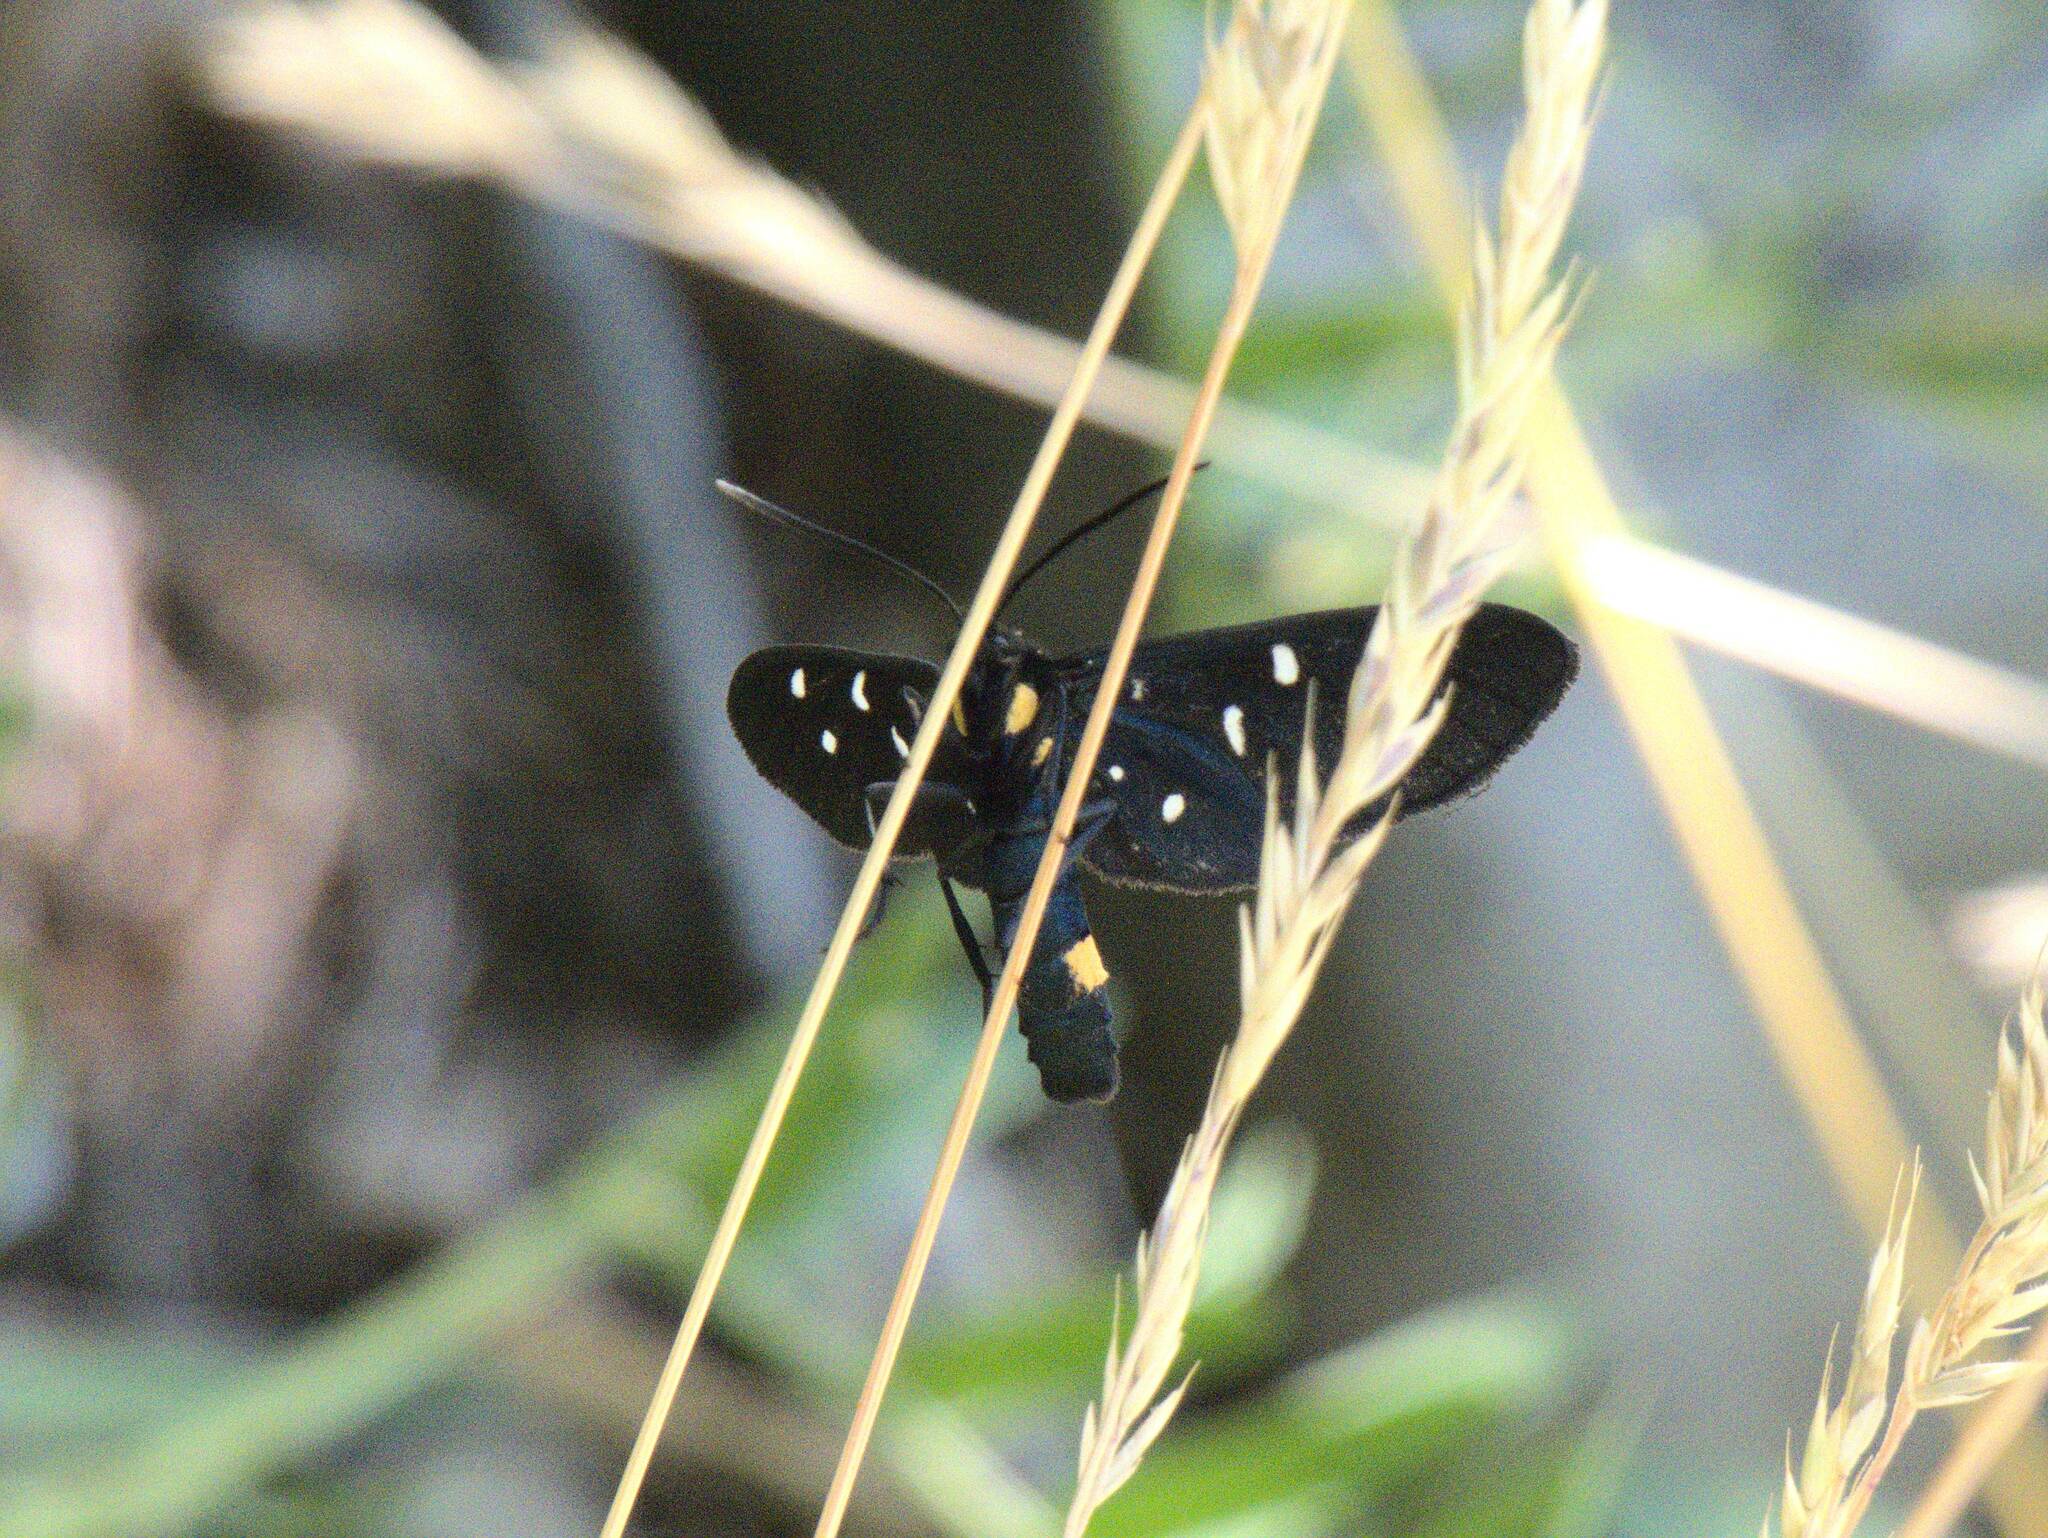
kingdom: Animalia
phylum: Arthropoda
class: Insecta
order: Lepidoptera
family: Erebidae
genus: Amata
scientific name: Amata phegea
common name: Nine-spotted
